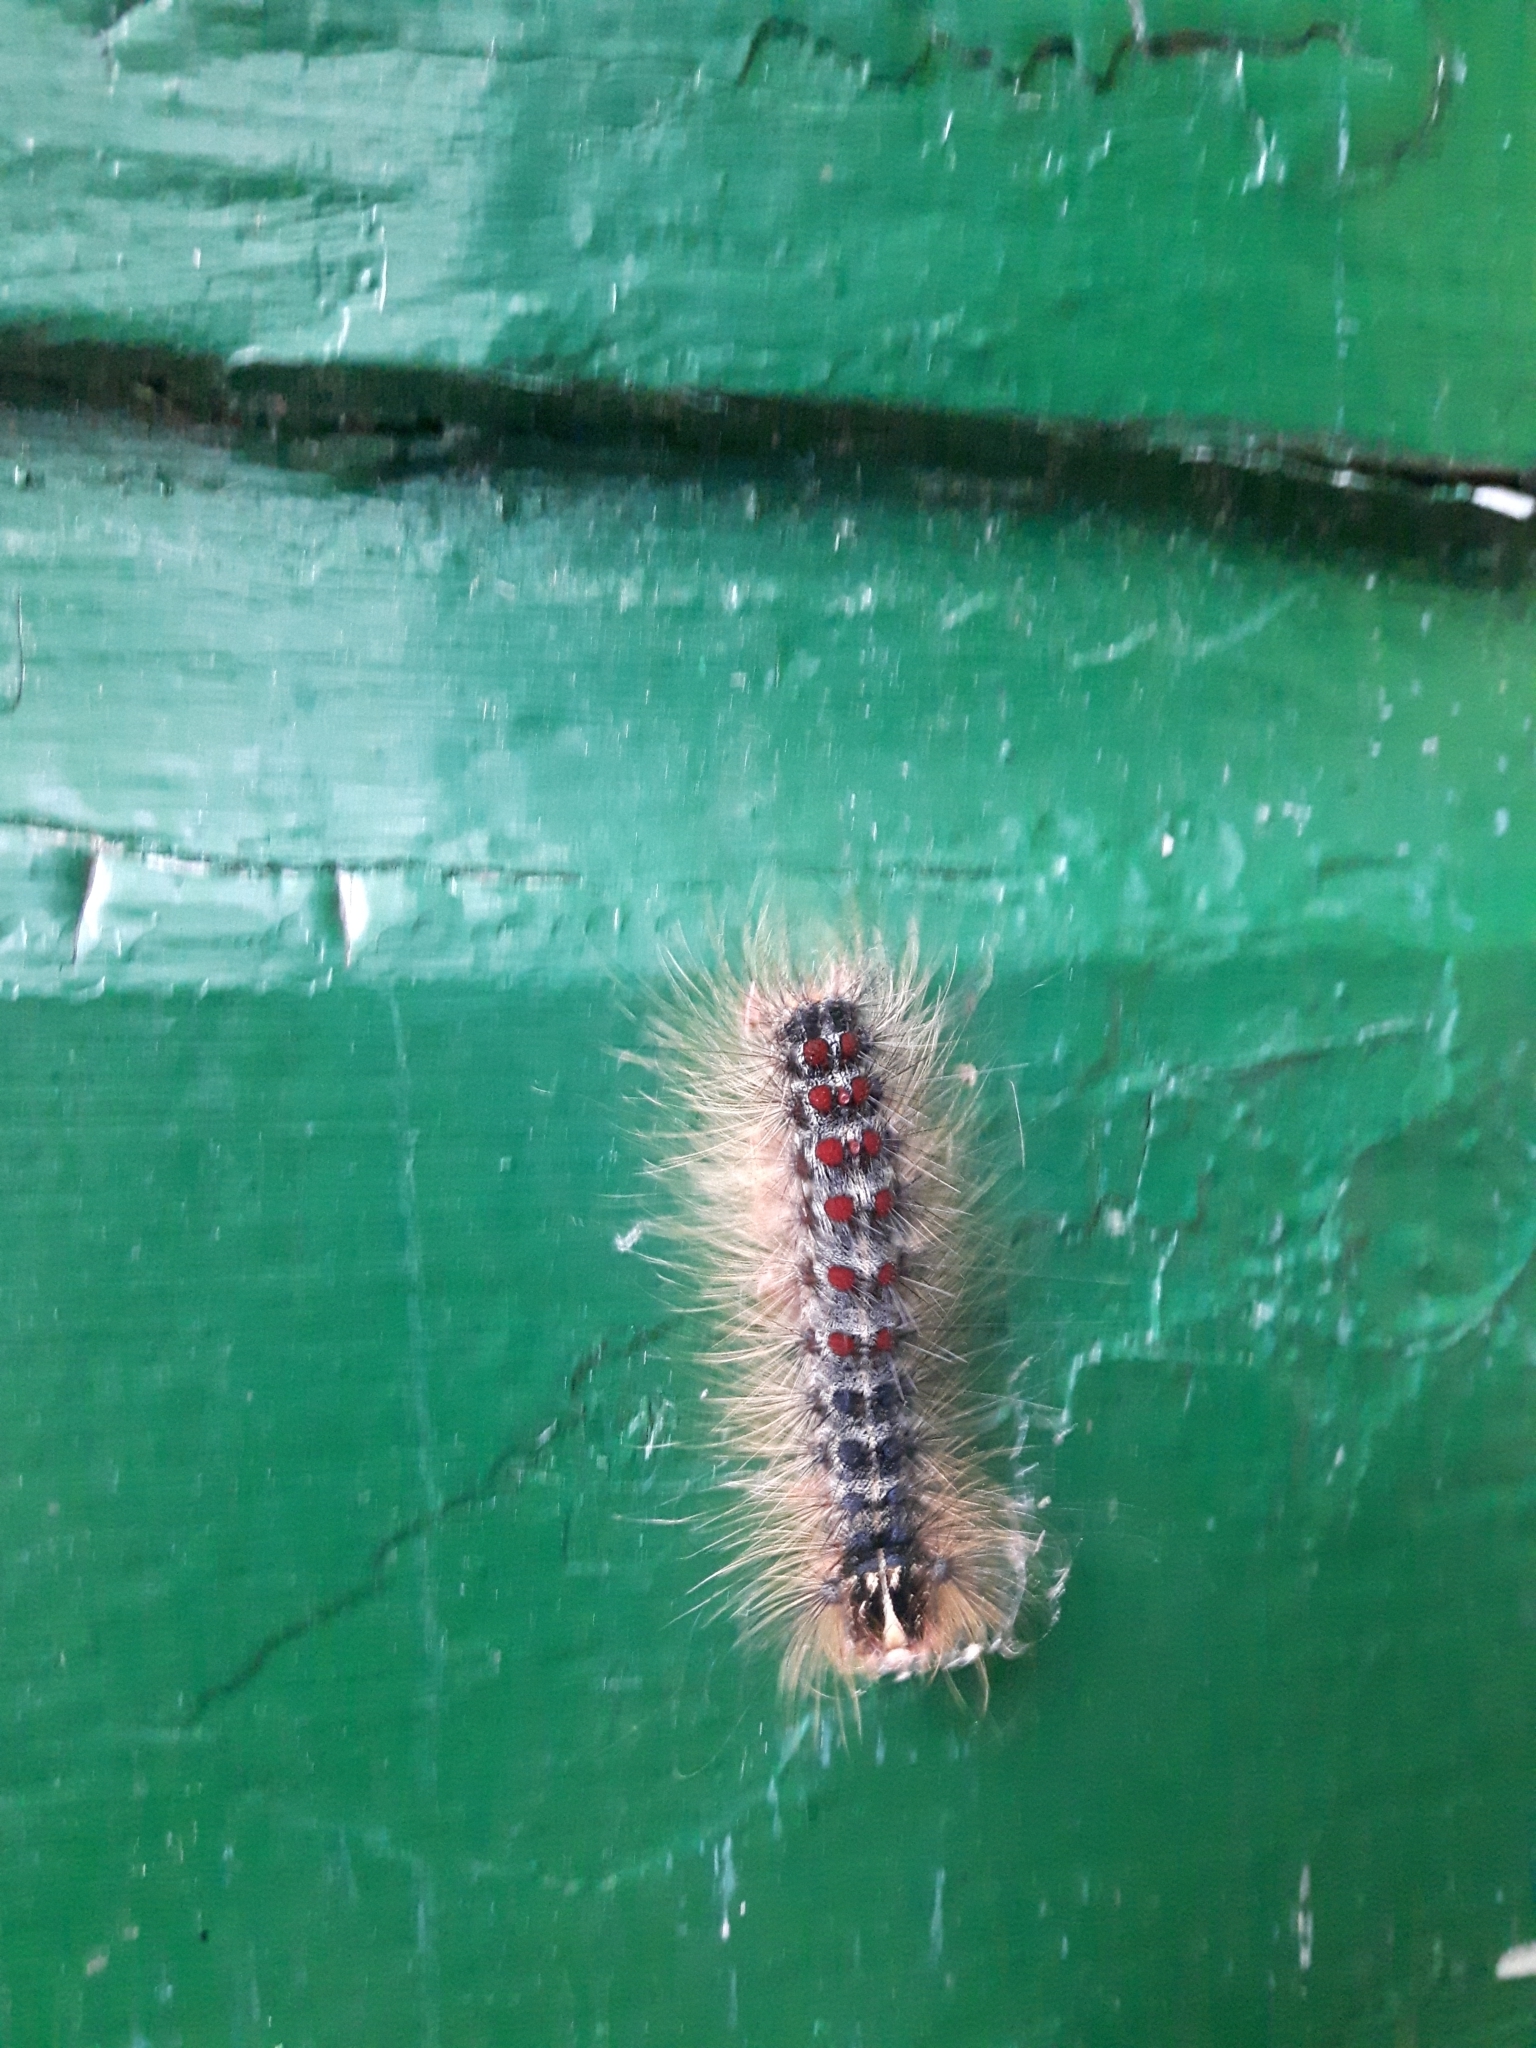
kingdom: Animalia
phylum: Arthropoda
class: Insecta
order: Lepidoptera
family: Erebidae
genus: Lymantria
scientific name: Lymantria dispar
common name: Gypsy moth
